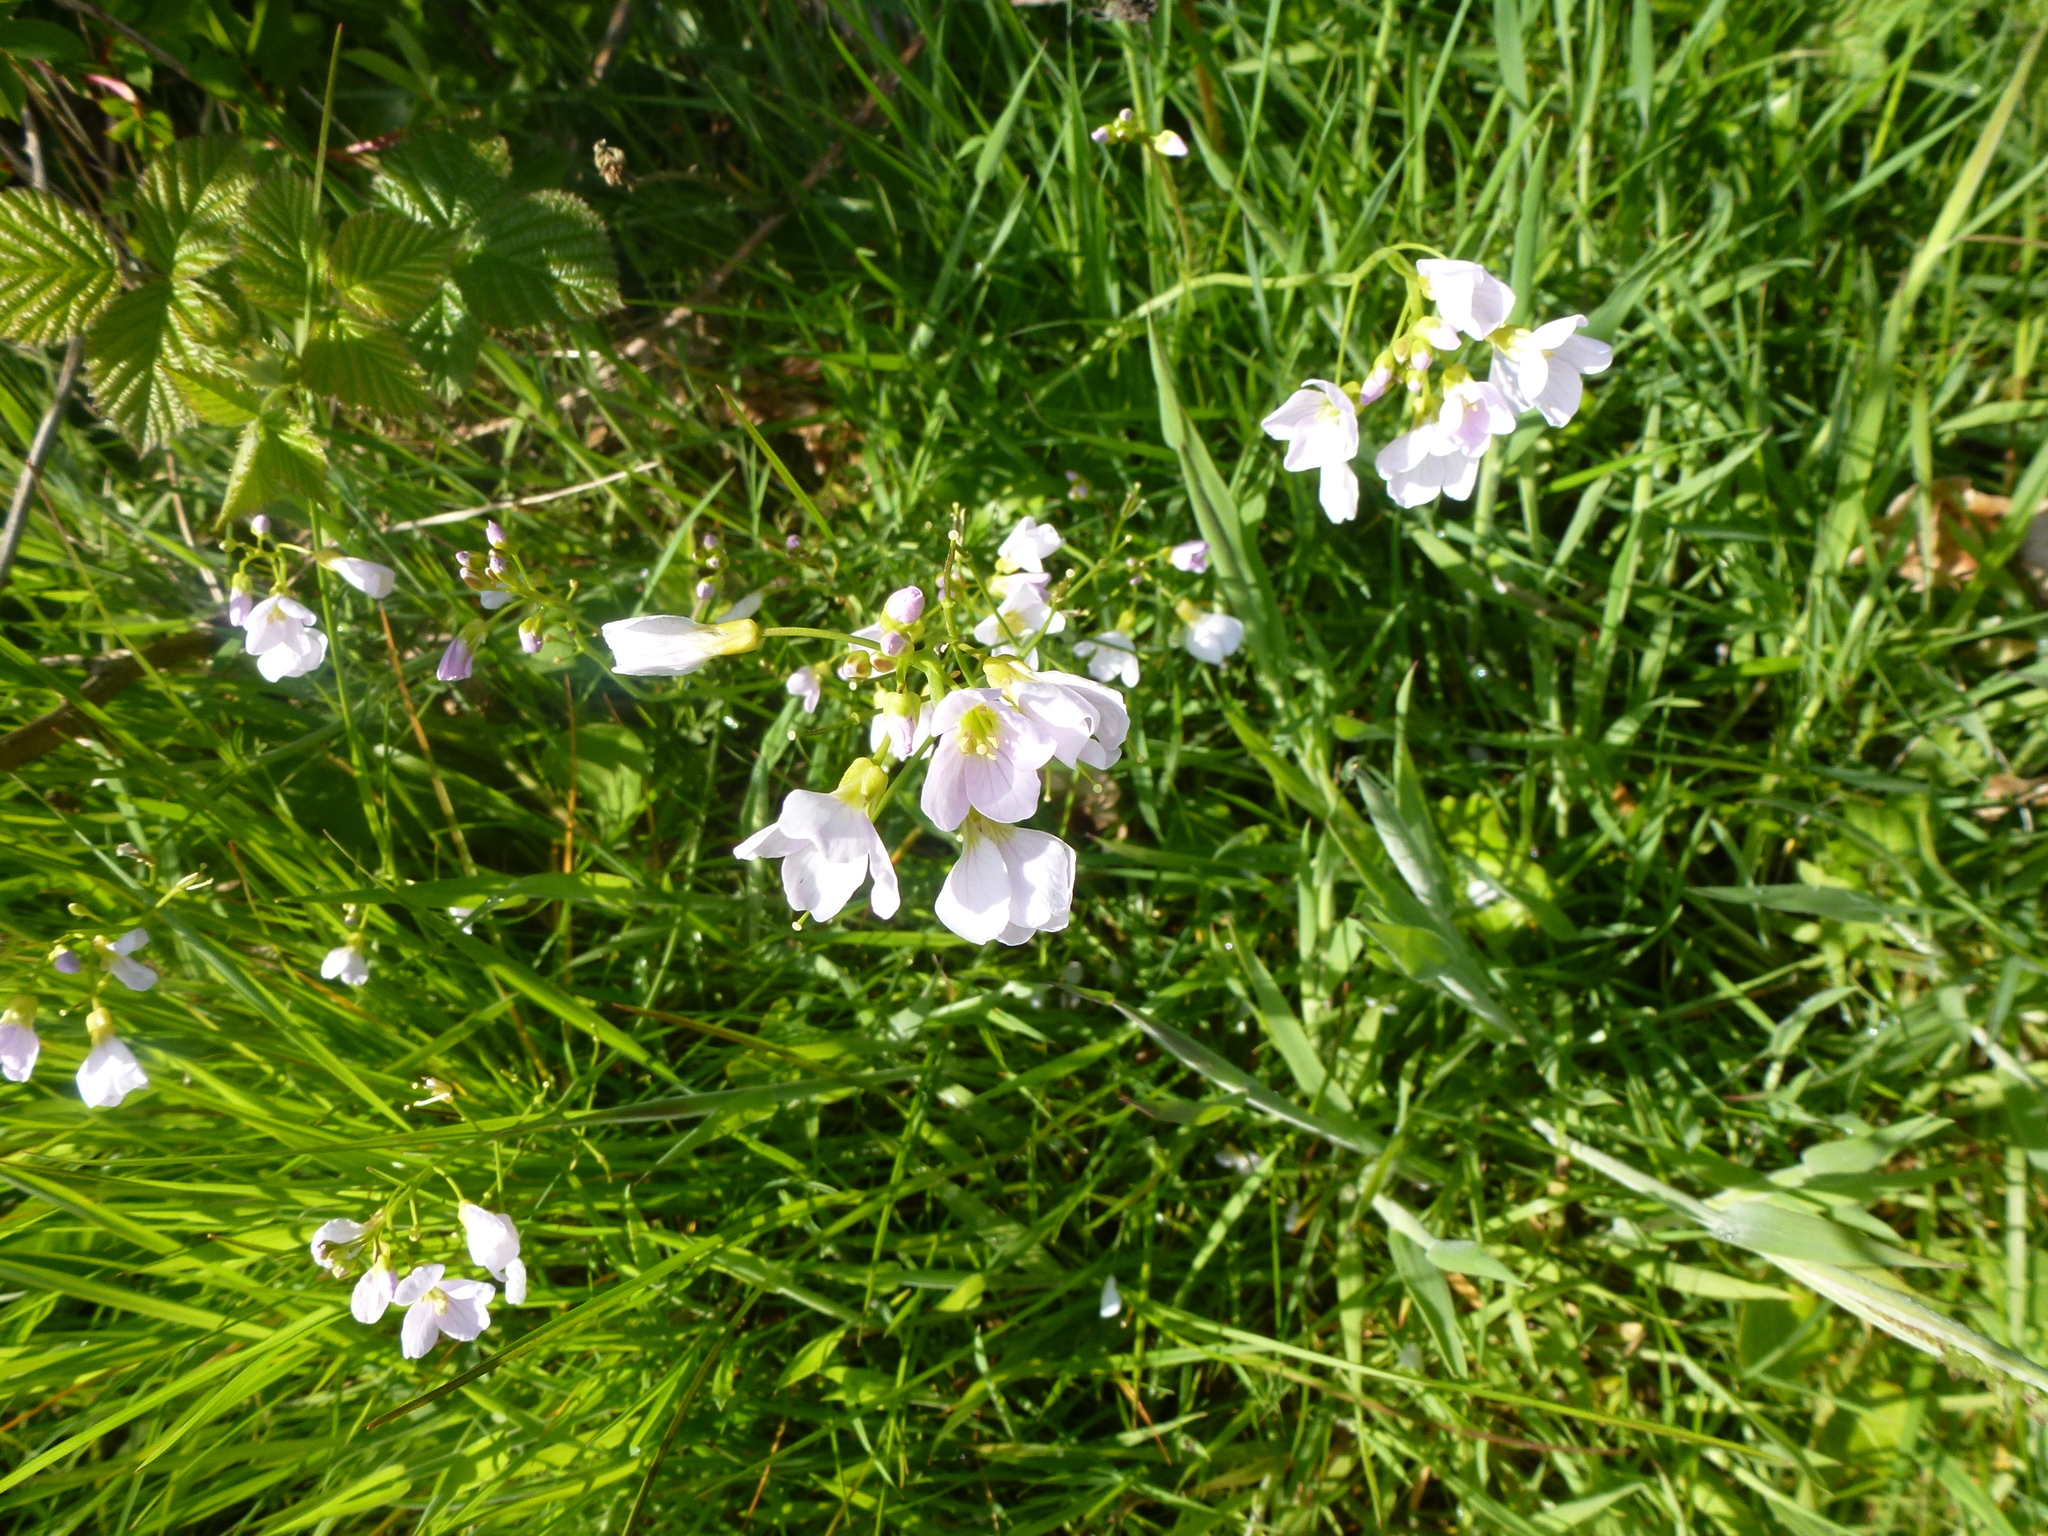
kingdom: Plantae
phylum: Tracheophyta
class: Magnoliopsida
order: Brassicales
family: Brassicaceae
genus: Cardamine
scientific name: Cardamine pratensis
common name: Cuckoo flower
